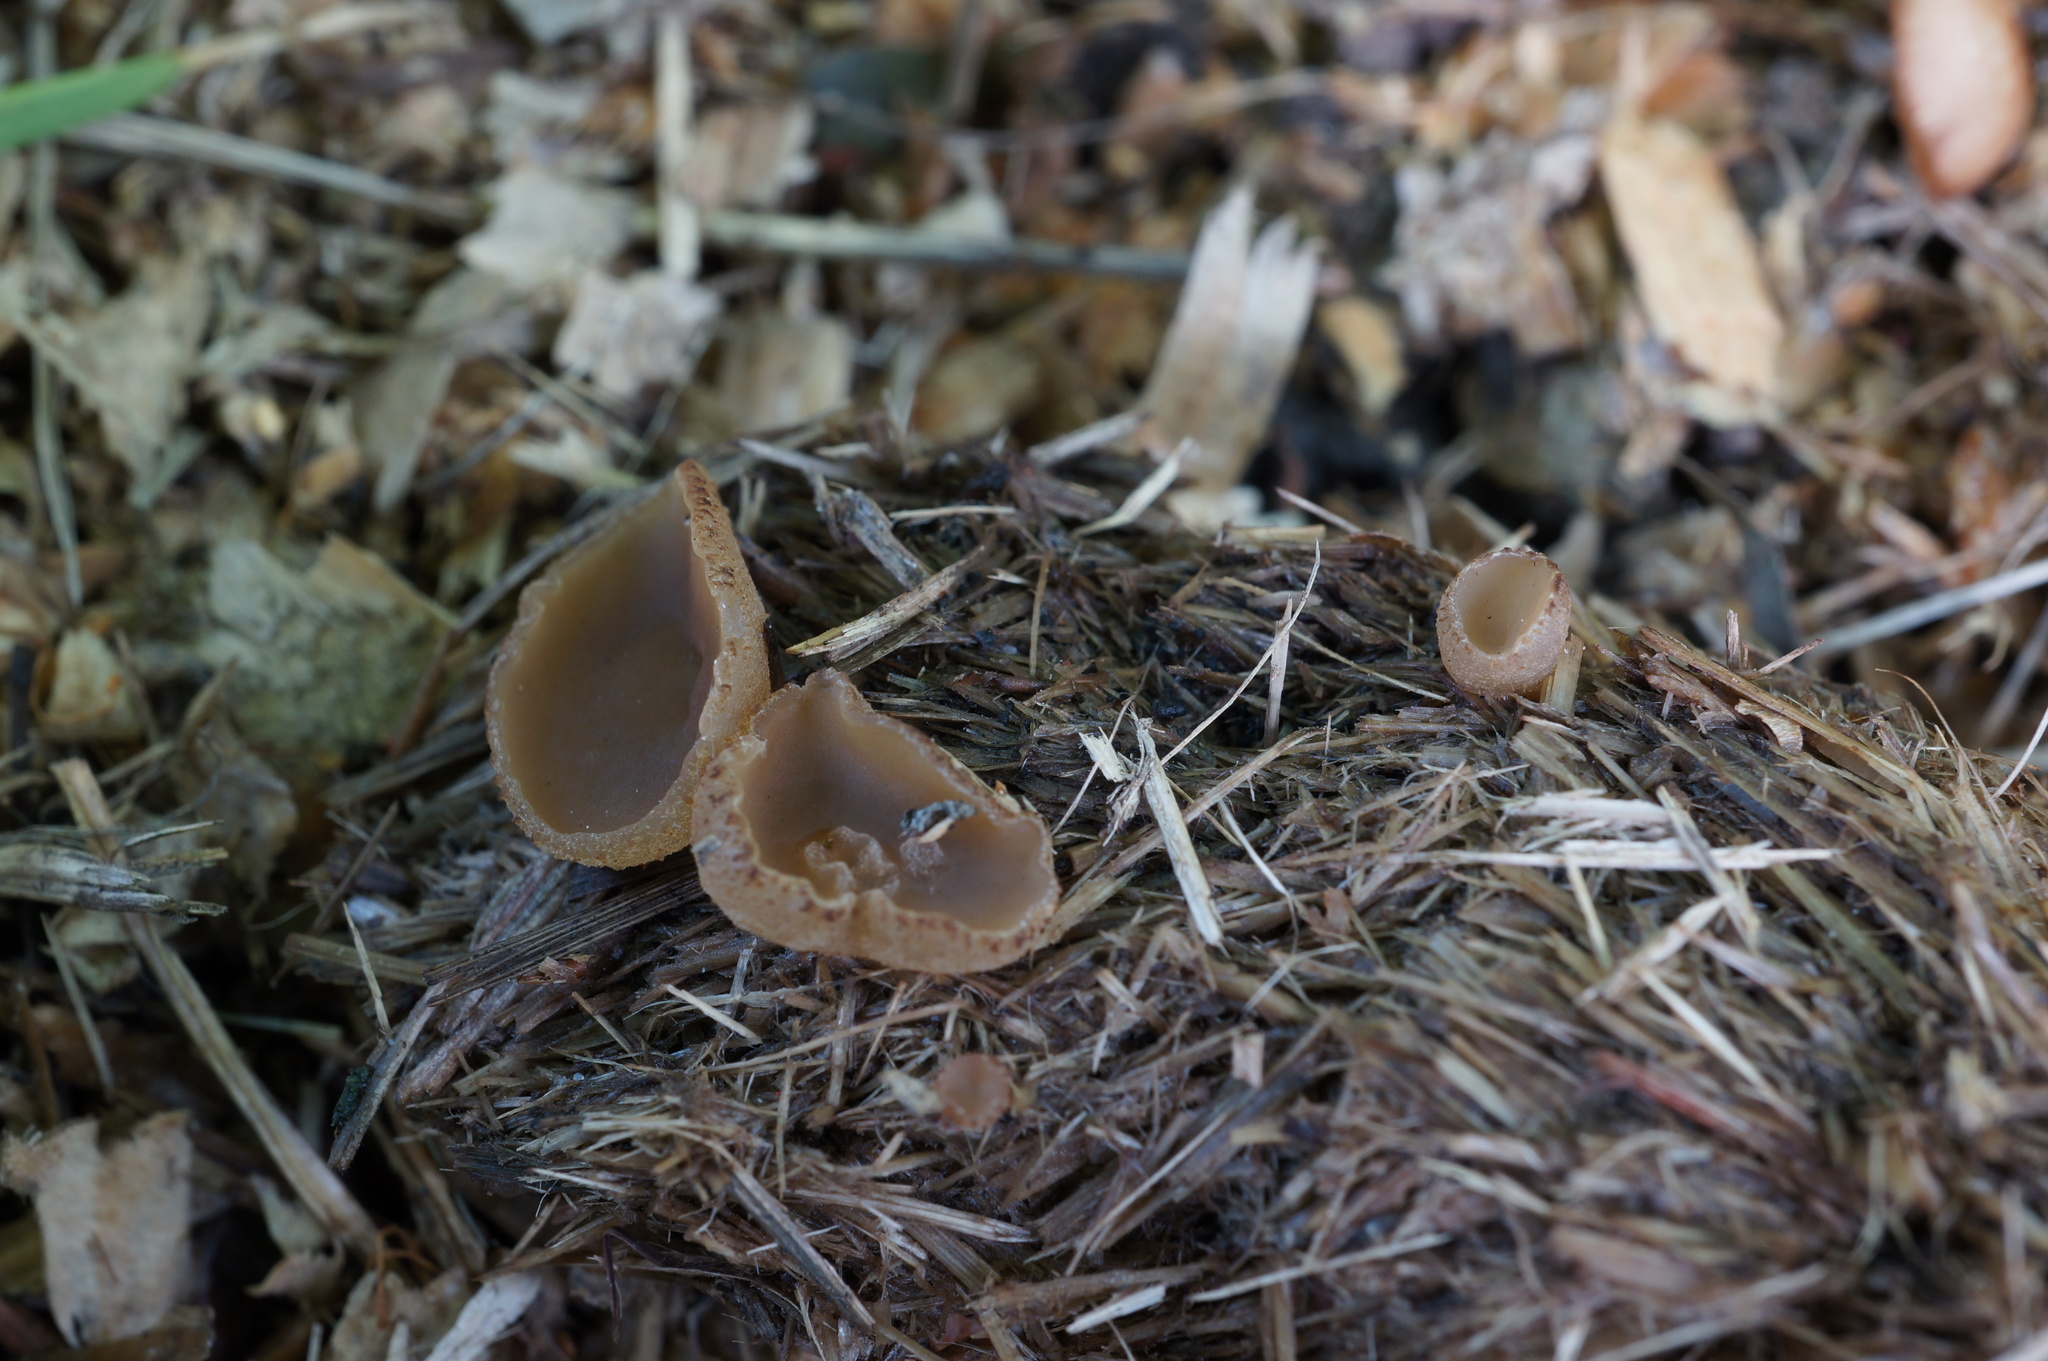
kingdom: Fungi
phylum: Ascomycota
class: Pezizomycetes
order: Pezizales
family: Pezizaceae
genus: Peziza
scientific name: Peziza fimeti
